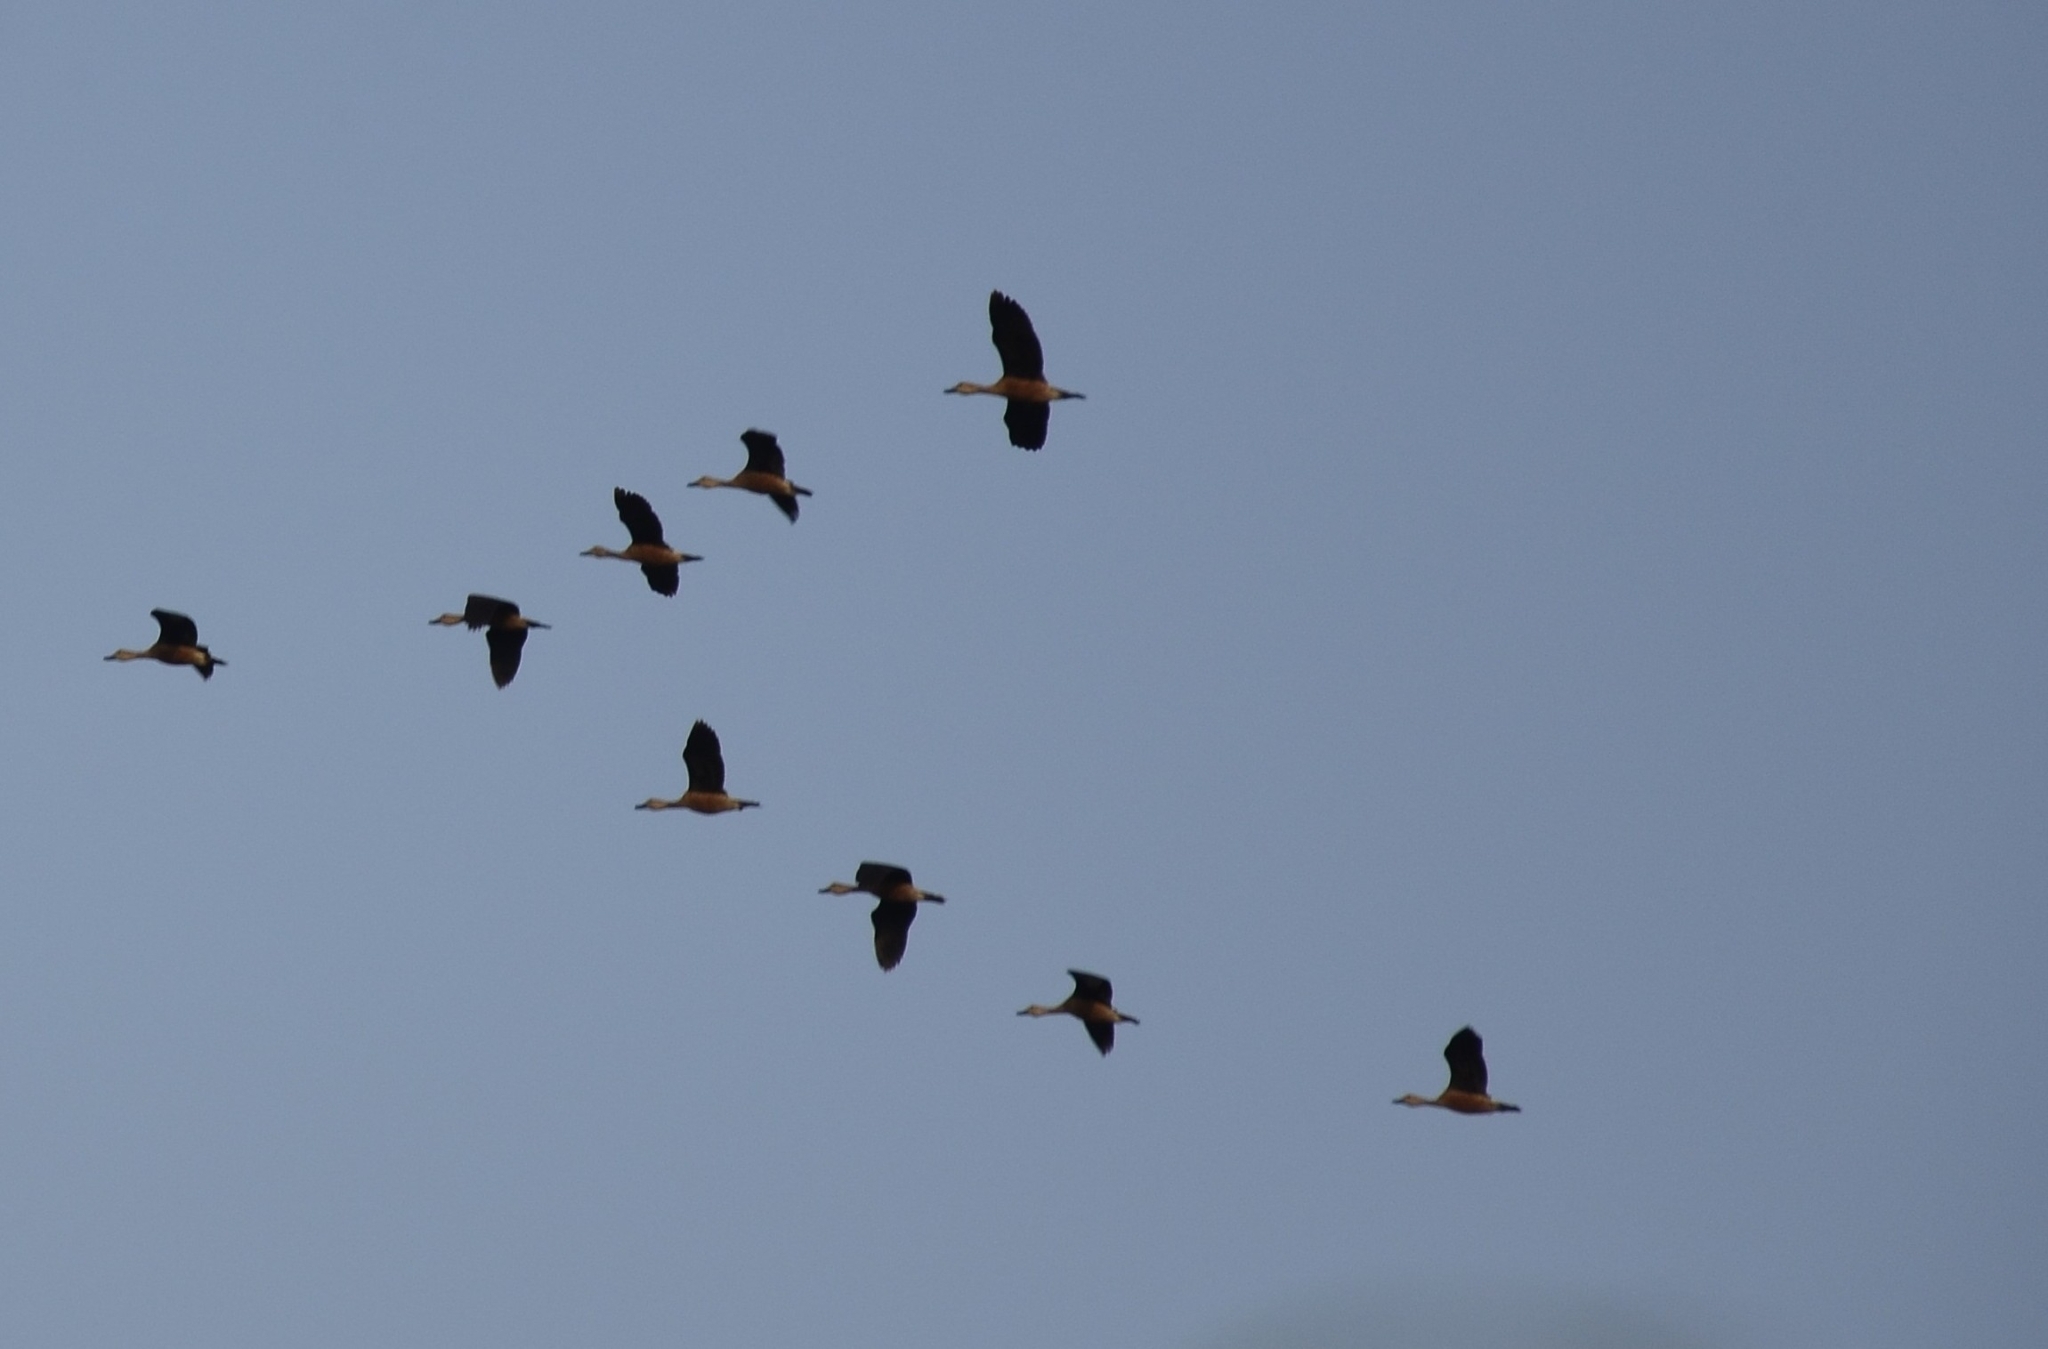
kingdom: Animalia
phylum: Chordata
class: Aves
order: Anseriformes
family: Anatidae
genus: Dendrocygna
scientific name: Dendrocygna javanica
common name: Lesser whistling-duck
